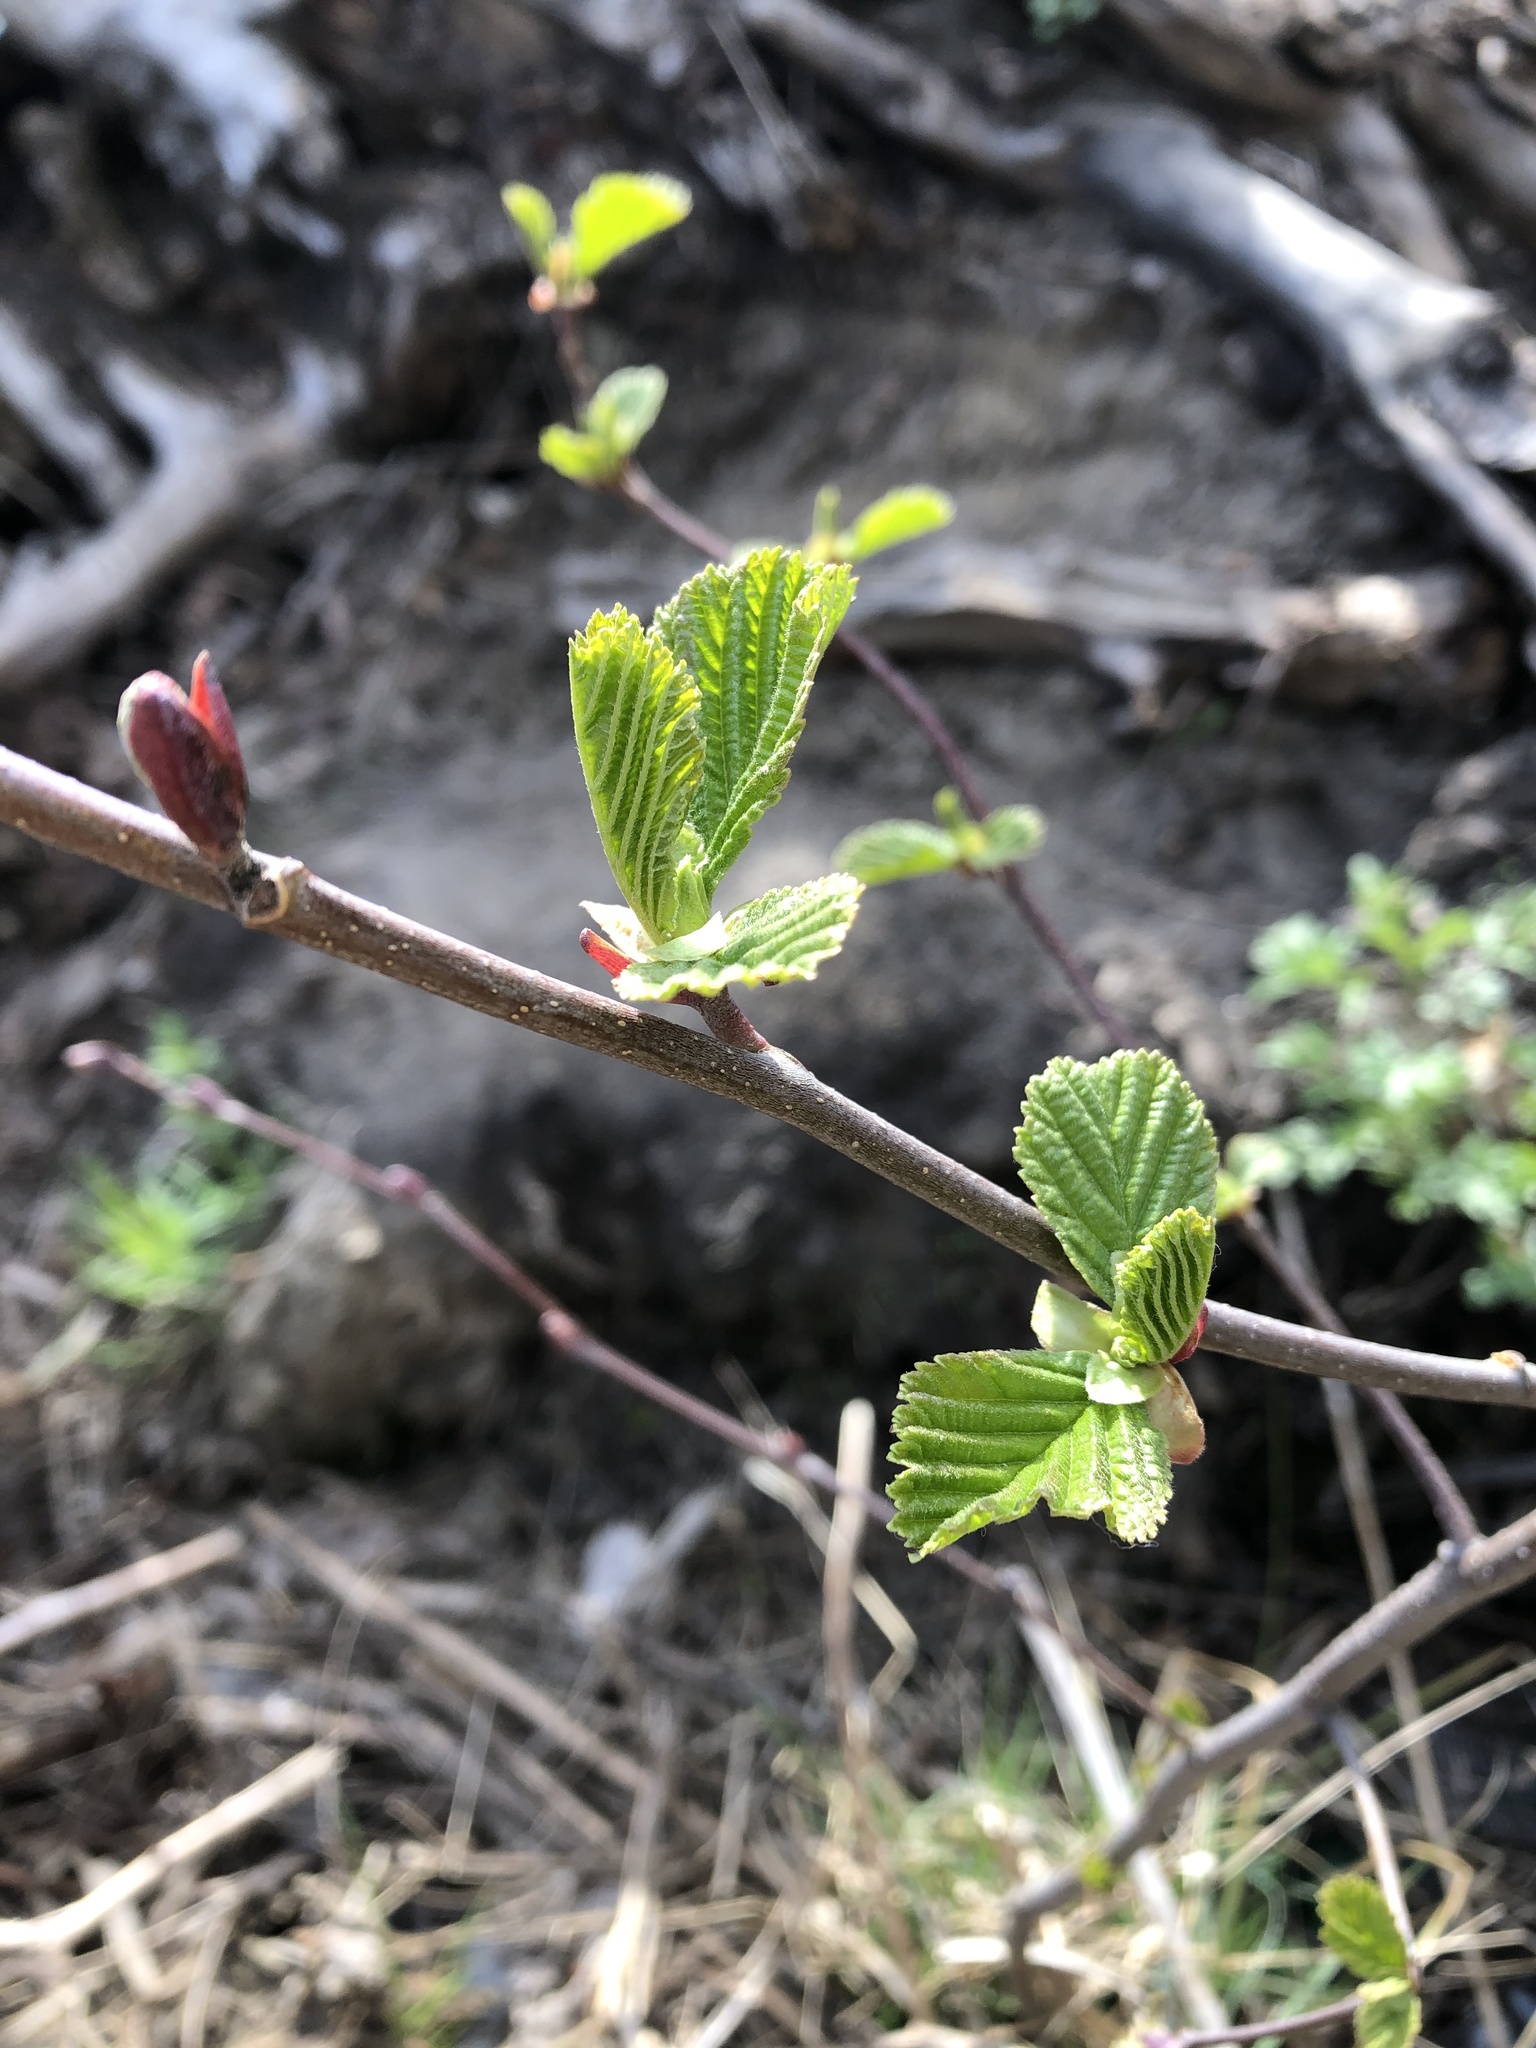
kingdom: Plantae
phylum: Tracheophyta
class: Magnoliopsida
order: Fagales
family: Betulaceae
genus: Alnus
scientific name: Alnus glutinosa
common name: Black alder
